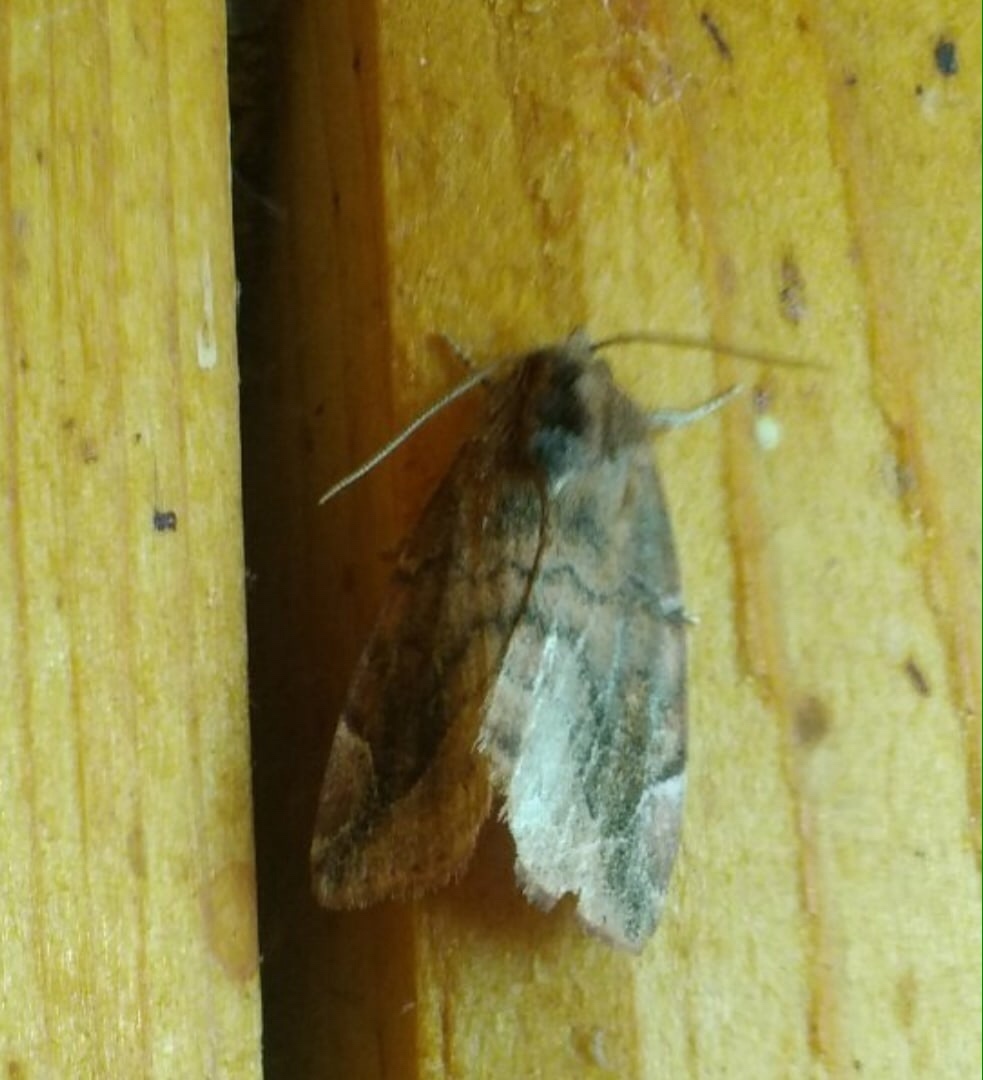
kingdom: Animalia
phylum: Arthropoda
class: Insecta
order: Lepidoptera
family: Noctuidae
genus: Cosmia
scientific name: Cosmia pyralina
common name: Lunar-spotted pinion
